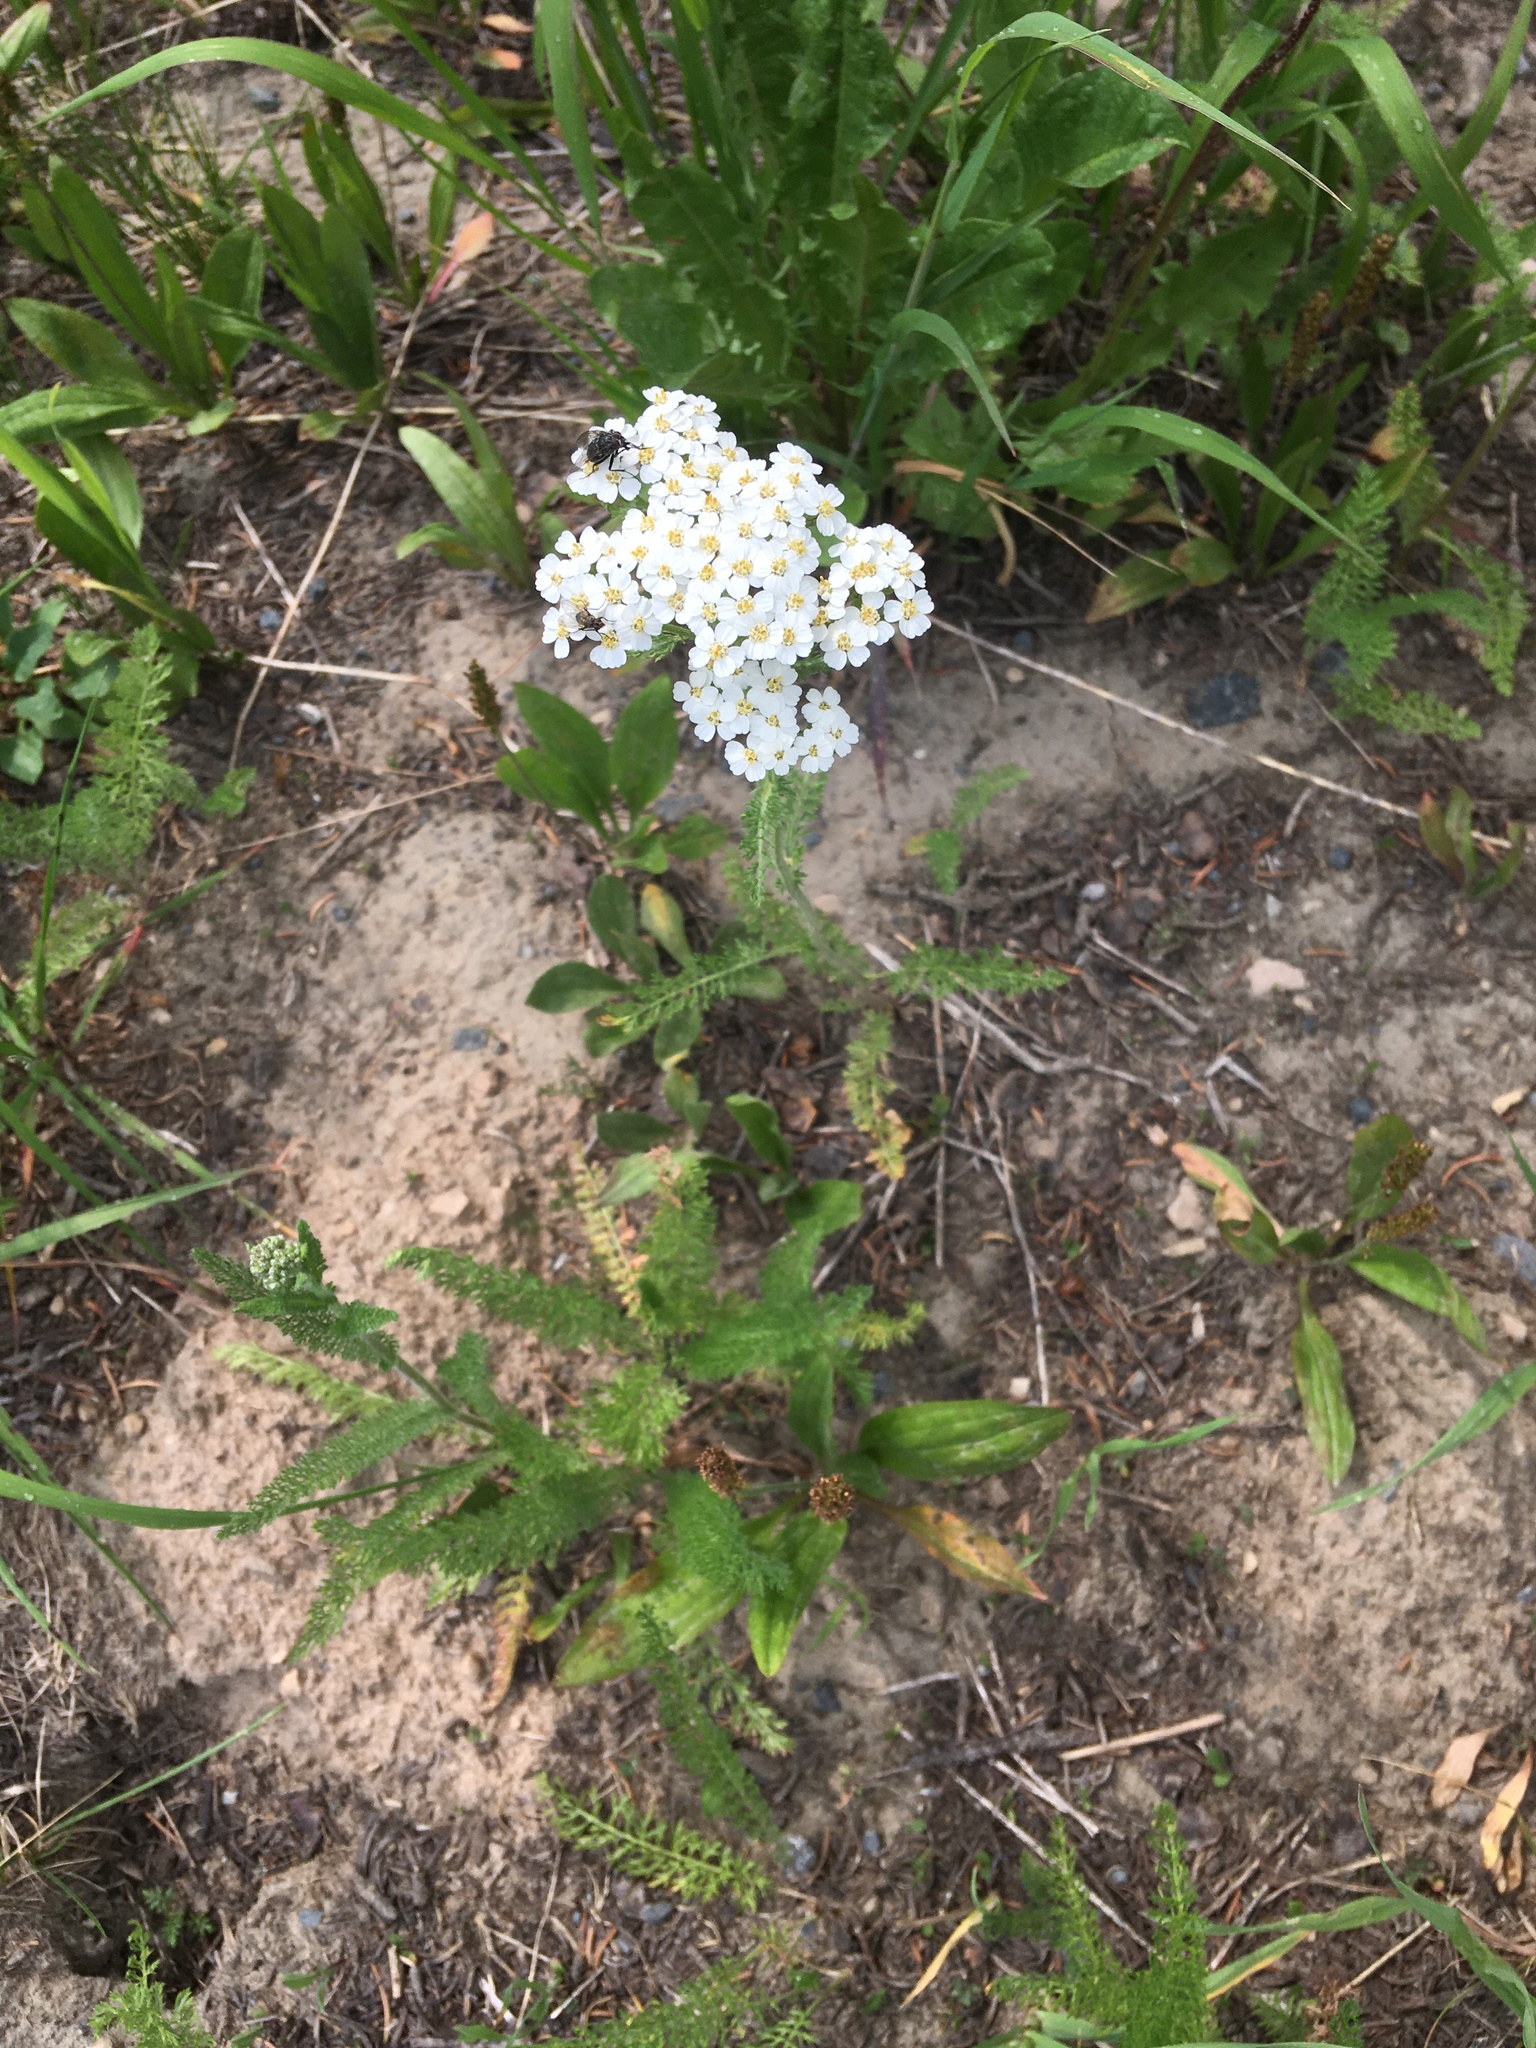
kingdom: Plantae
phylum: Tracheophyta
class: Magnoliopsida
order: Asterales
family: Asteraceae
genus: Achillea
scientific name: Achillea millefolium
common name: Yarrow
